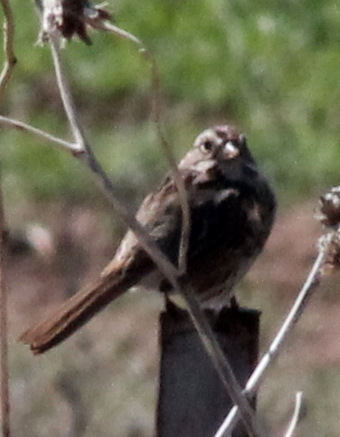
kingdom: Animalia
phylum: Chordata
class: Aves
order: Passeriformes
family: Passerellidae
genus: Melospiza
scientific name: Melospiza melodia
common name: Song sparrow
